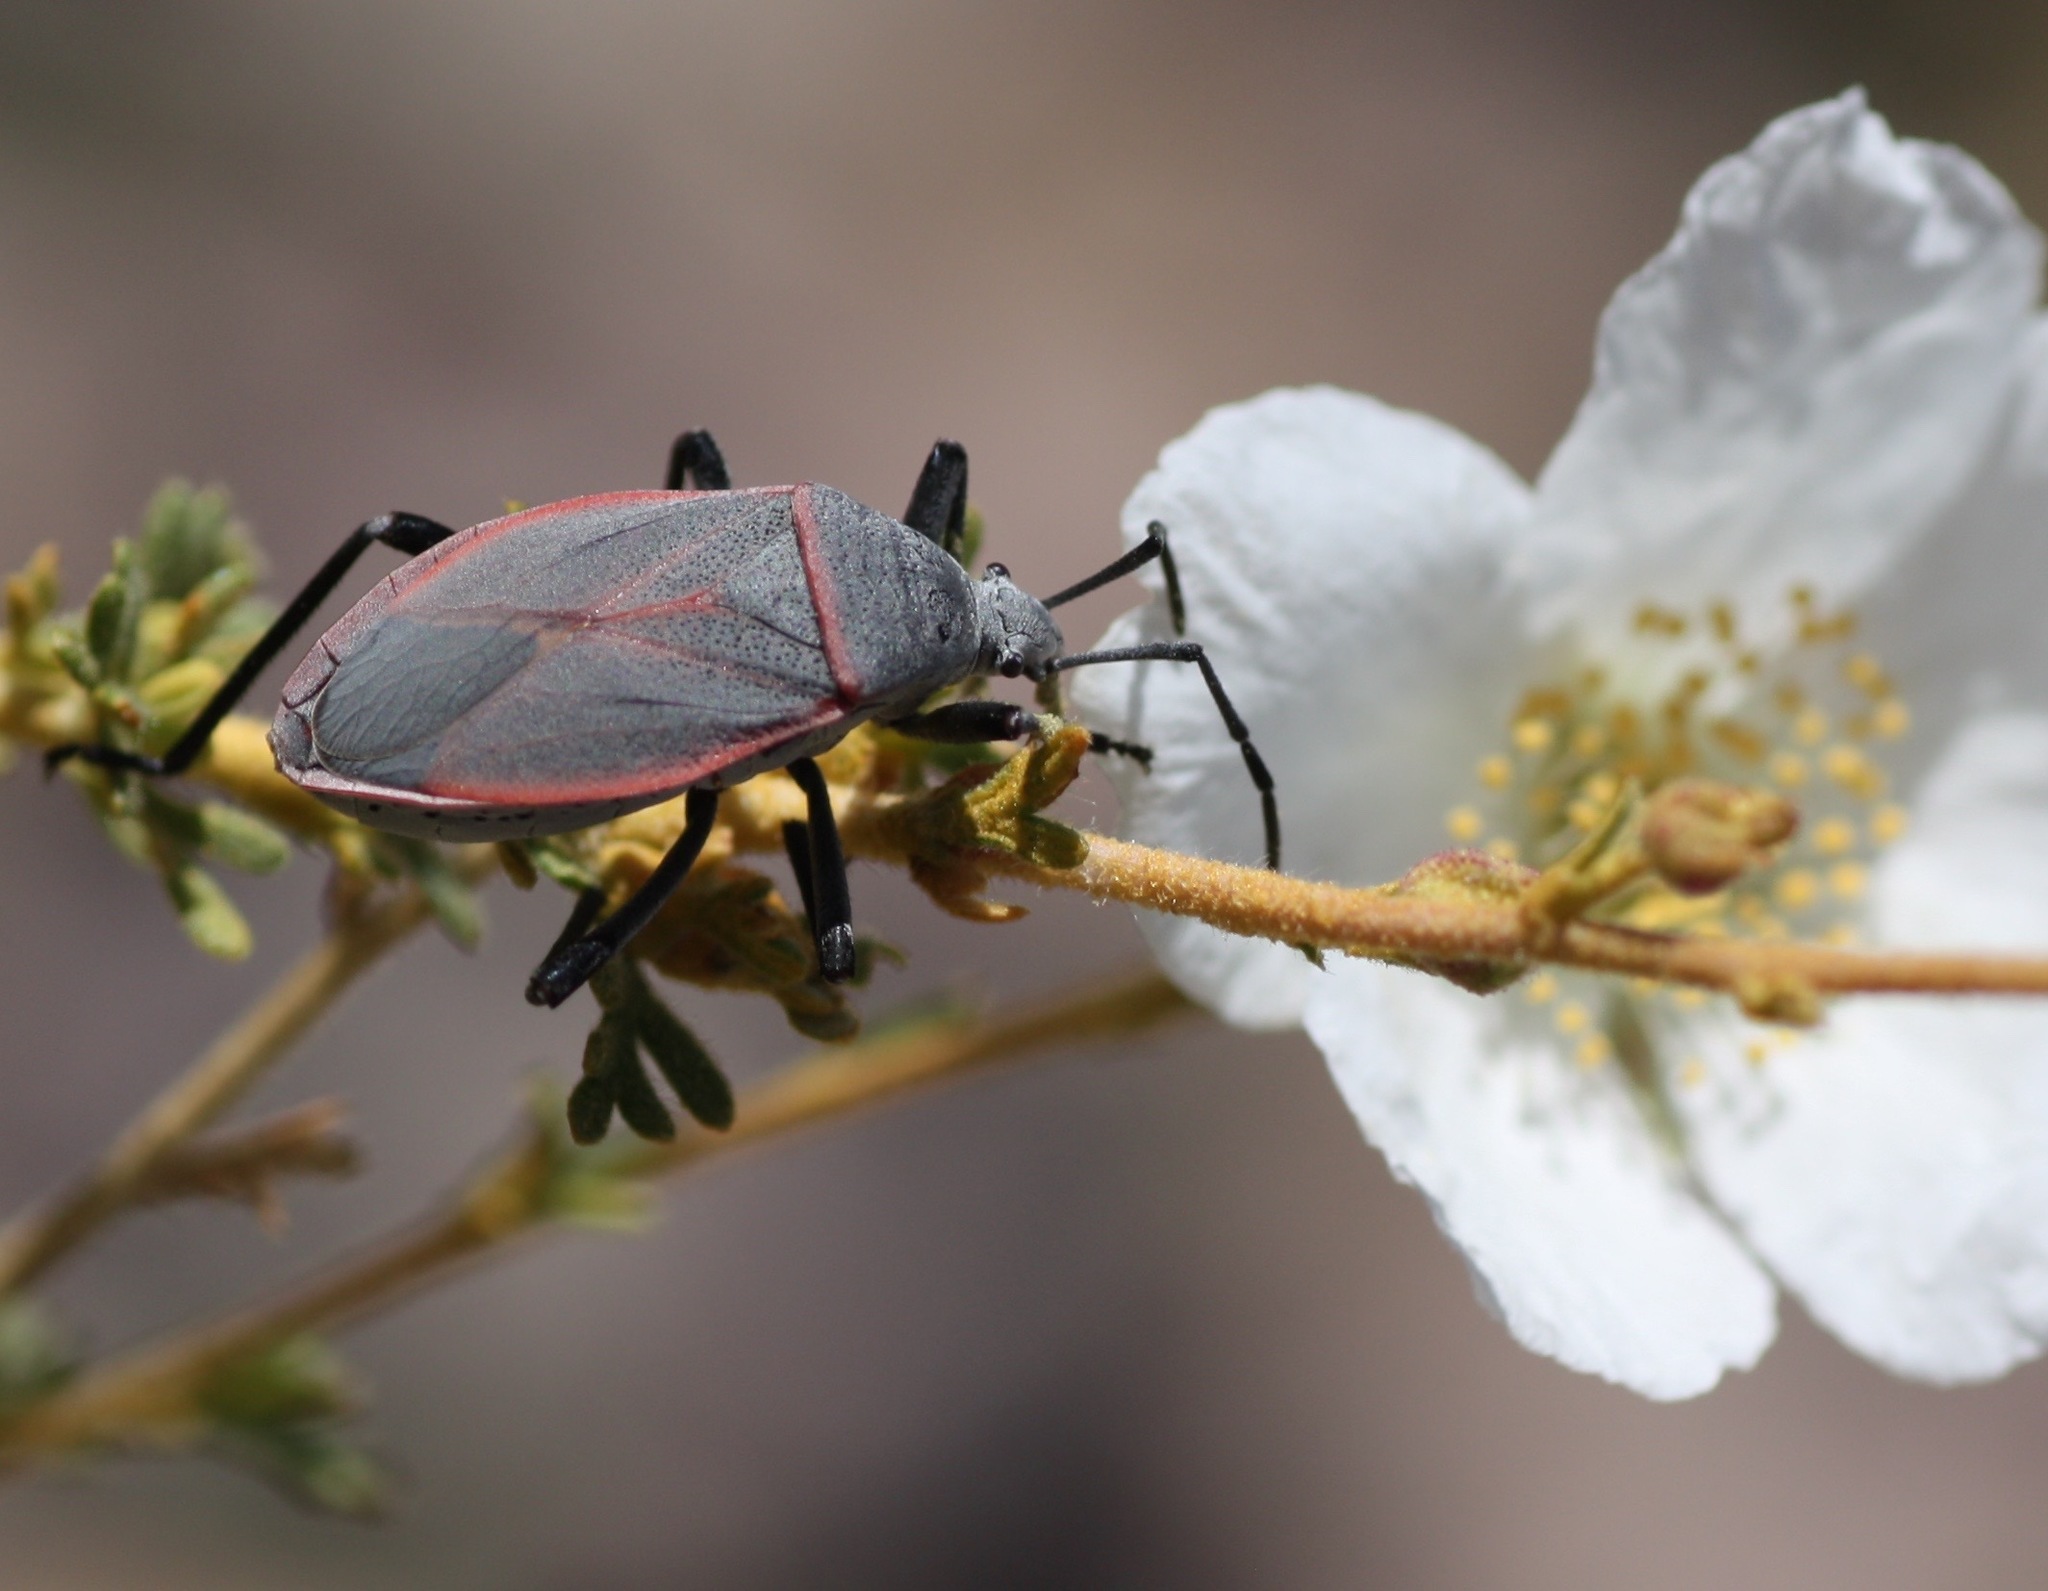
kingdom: Animalia
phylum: Arthropoda
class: Insecta
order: Hemiptera
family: Largidae
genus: Largus
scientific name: Largus semipunctatus
